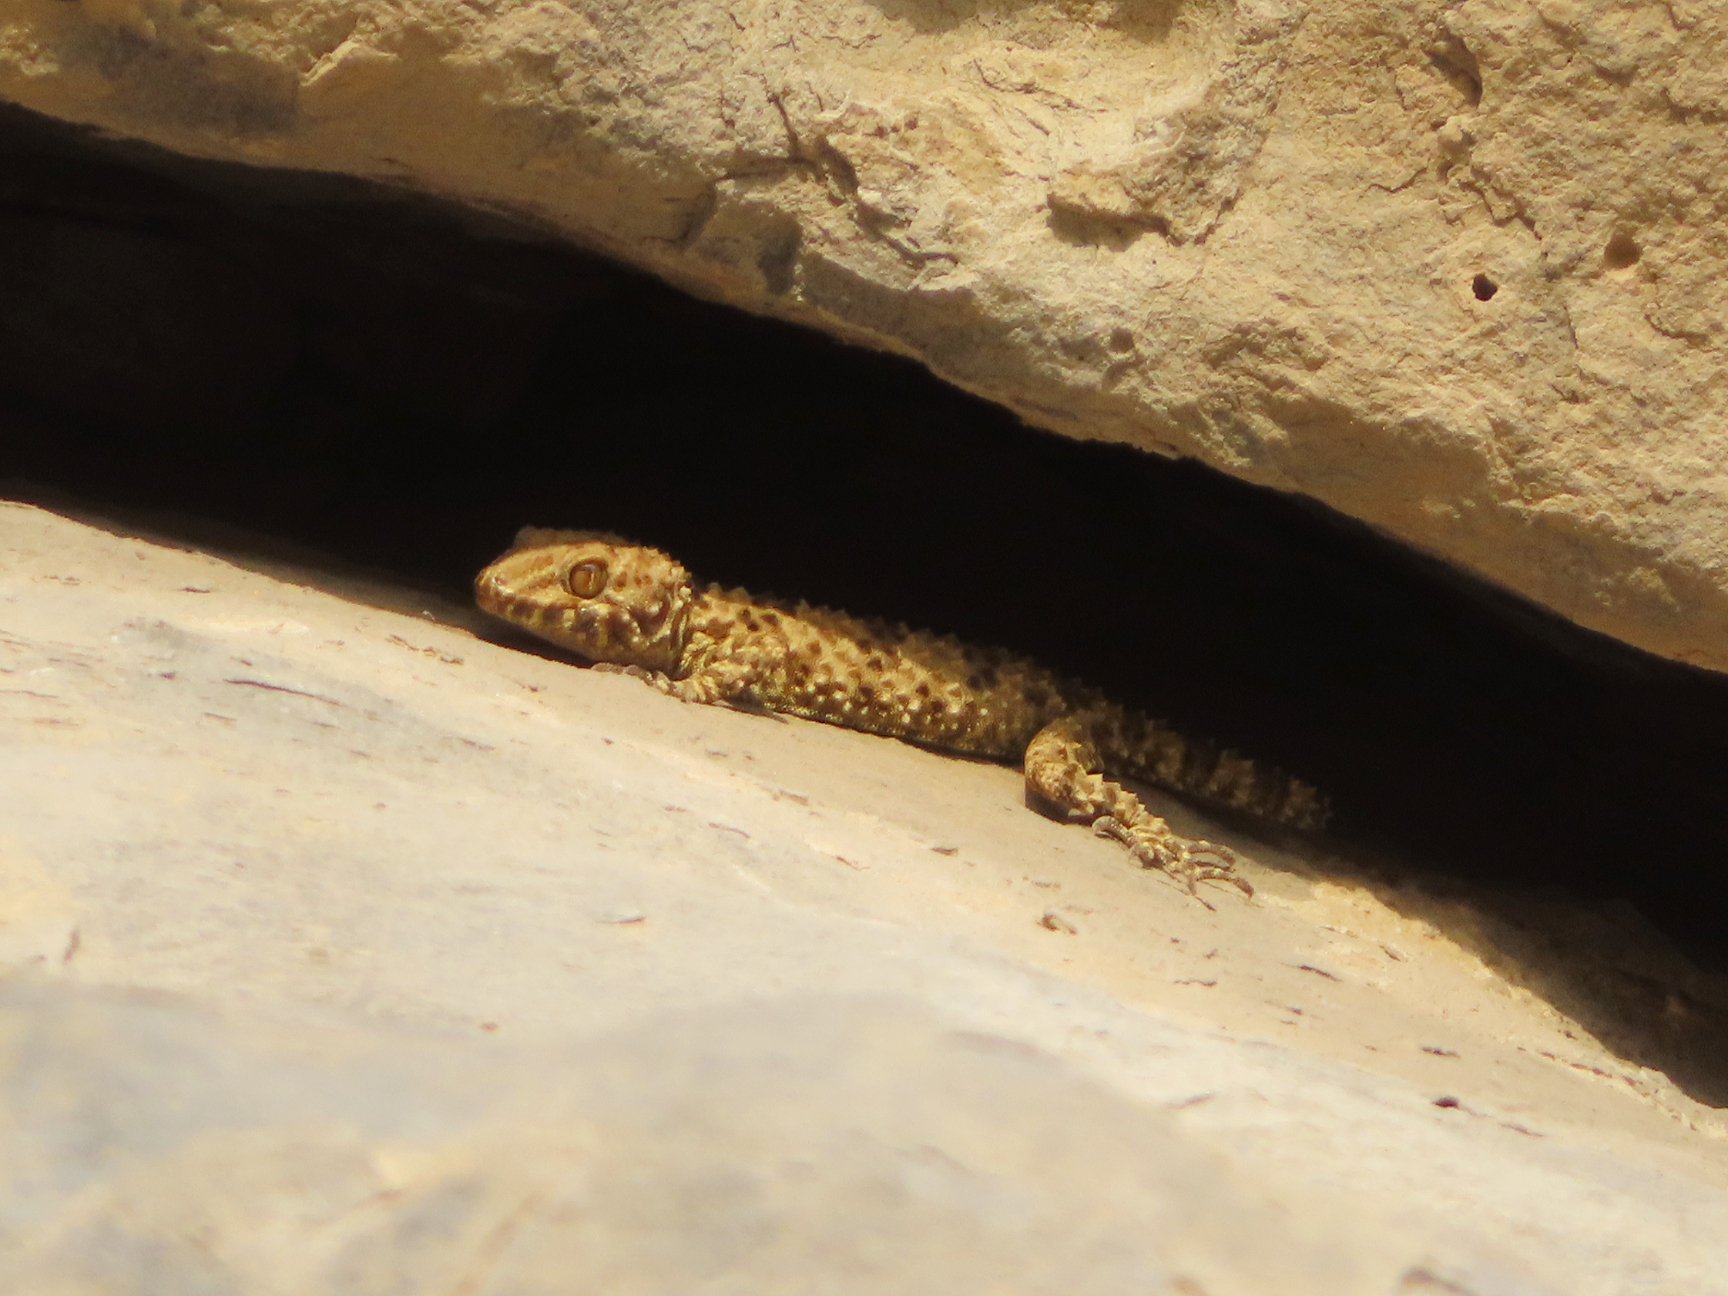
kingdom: Animalia
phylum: Chordata
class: Squamata
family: Gekkonidae
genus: Tenuidactylus
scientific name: Tenuidactylus caspius
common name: Caspian bent-toed gecko
